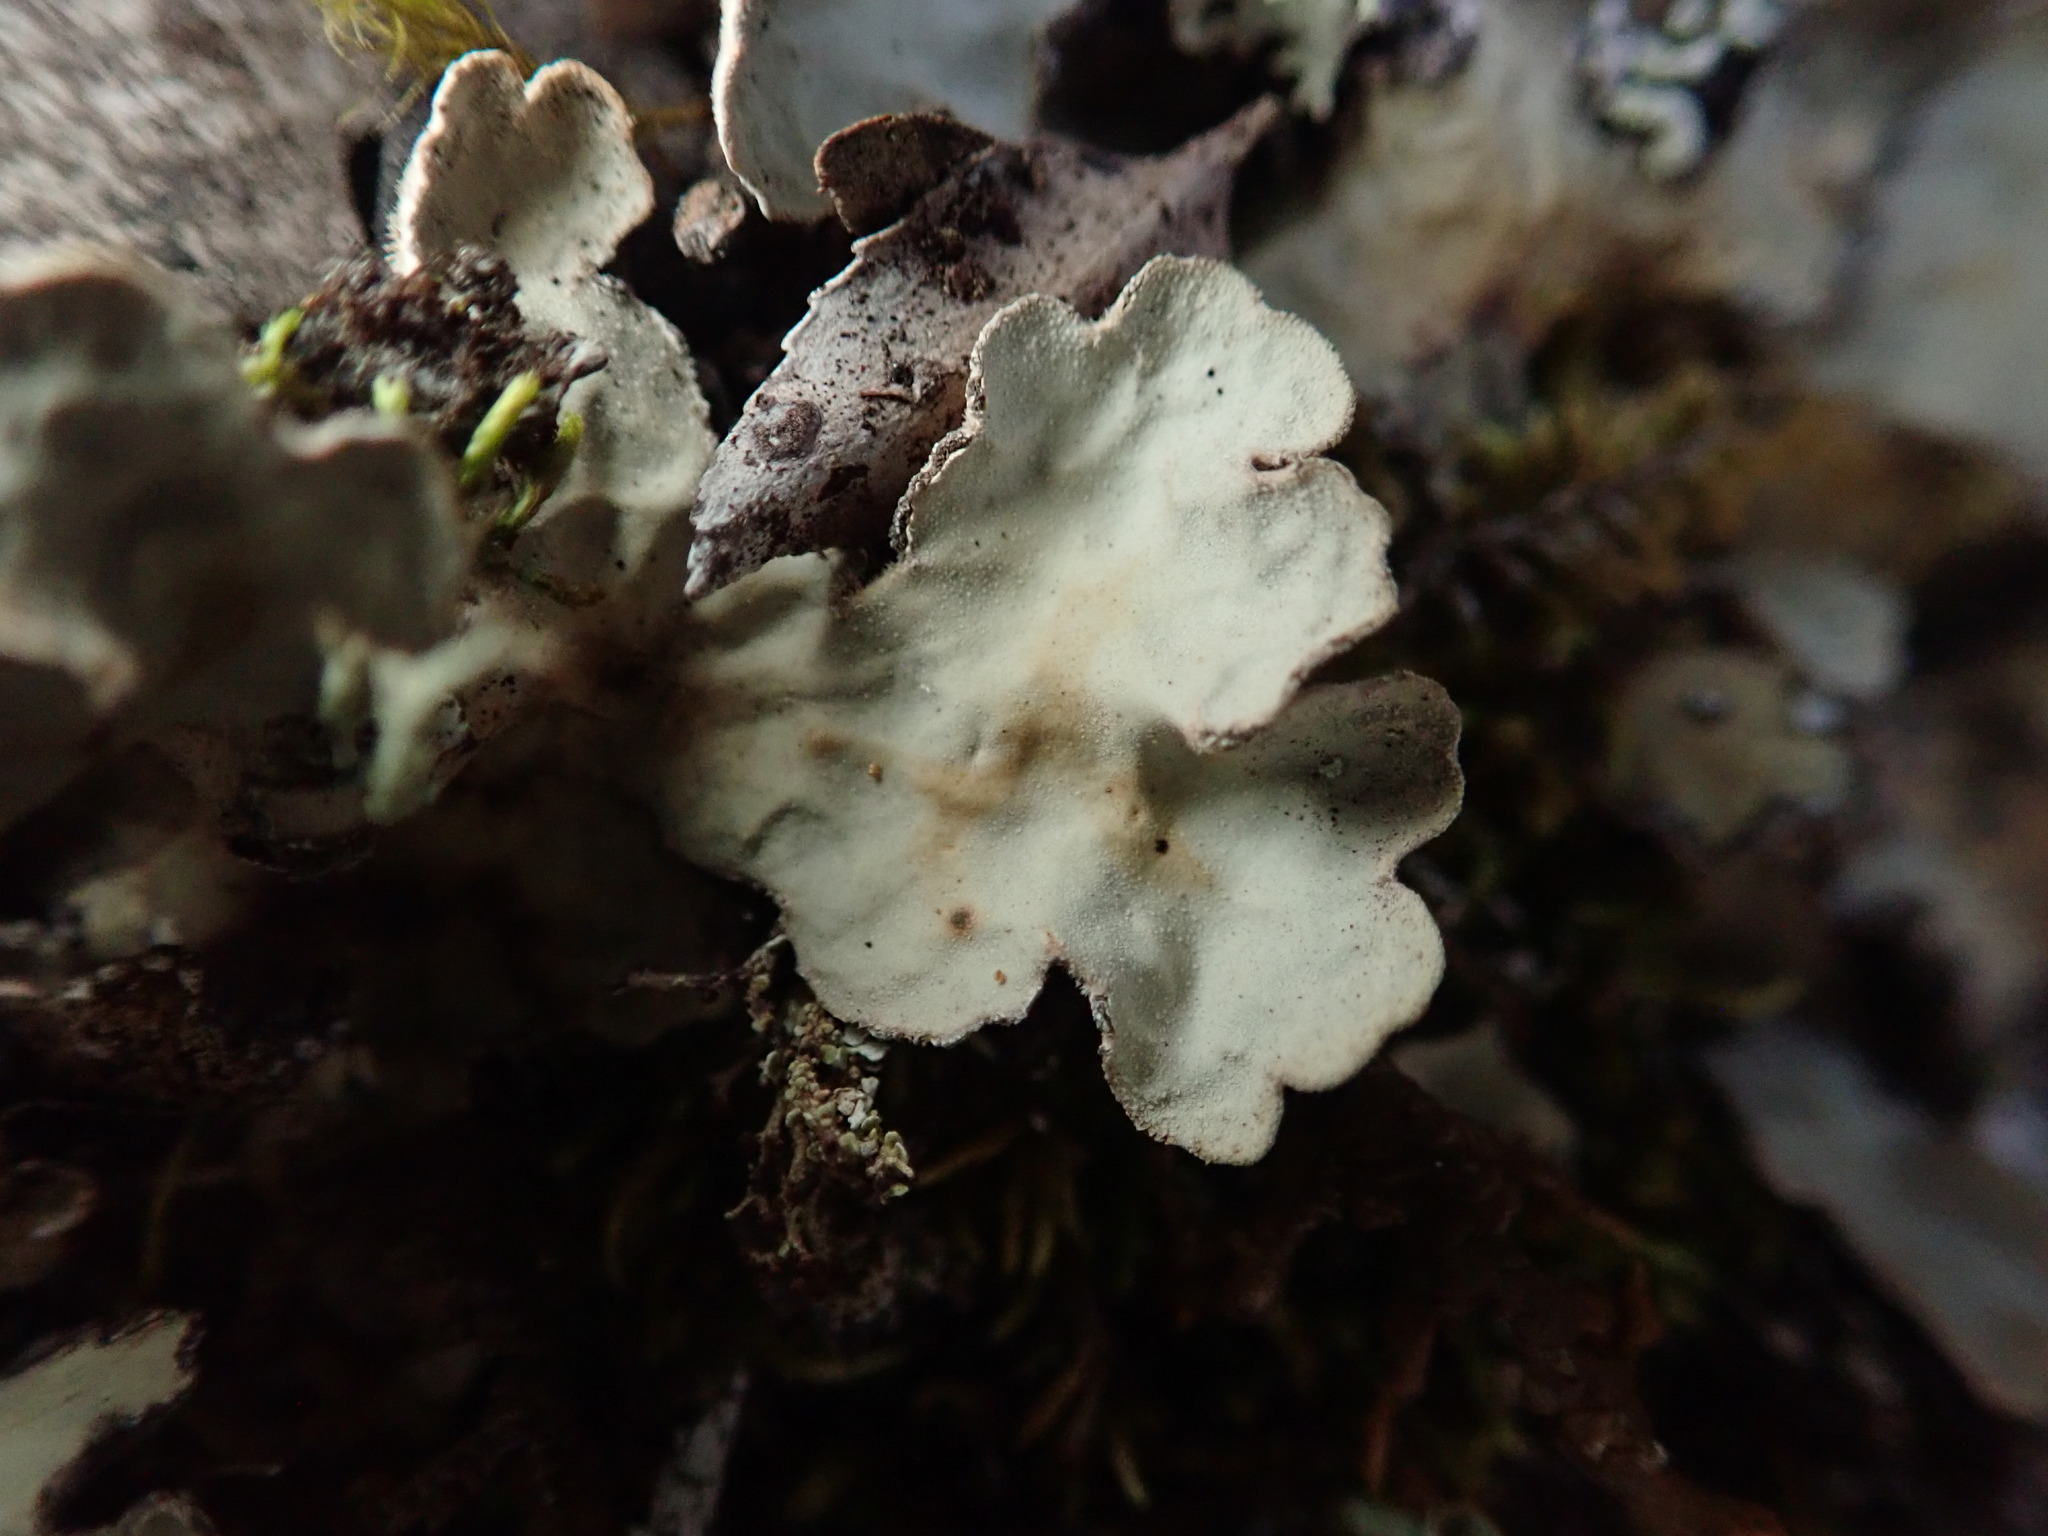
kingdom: Fungi
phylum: Ascomycota
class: Lecanoromycetes
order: Peltigerales
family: Lobariaceae
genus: Lobarina
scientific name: Lobarina scrobiculata
